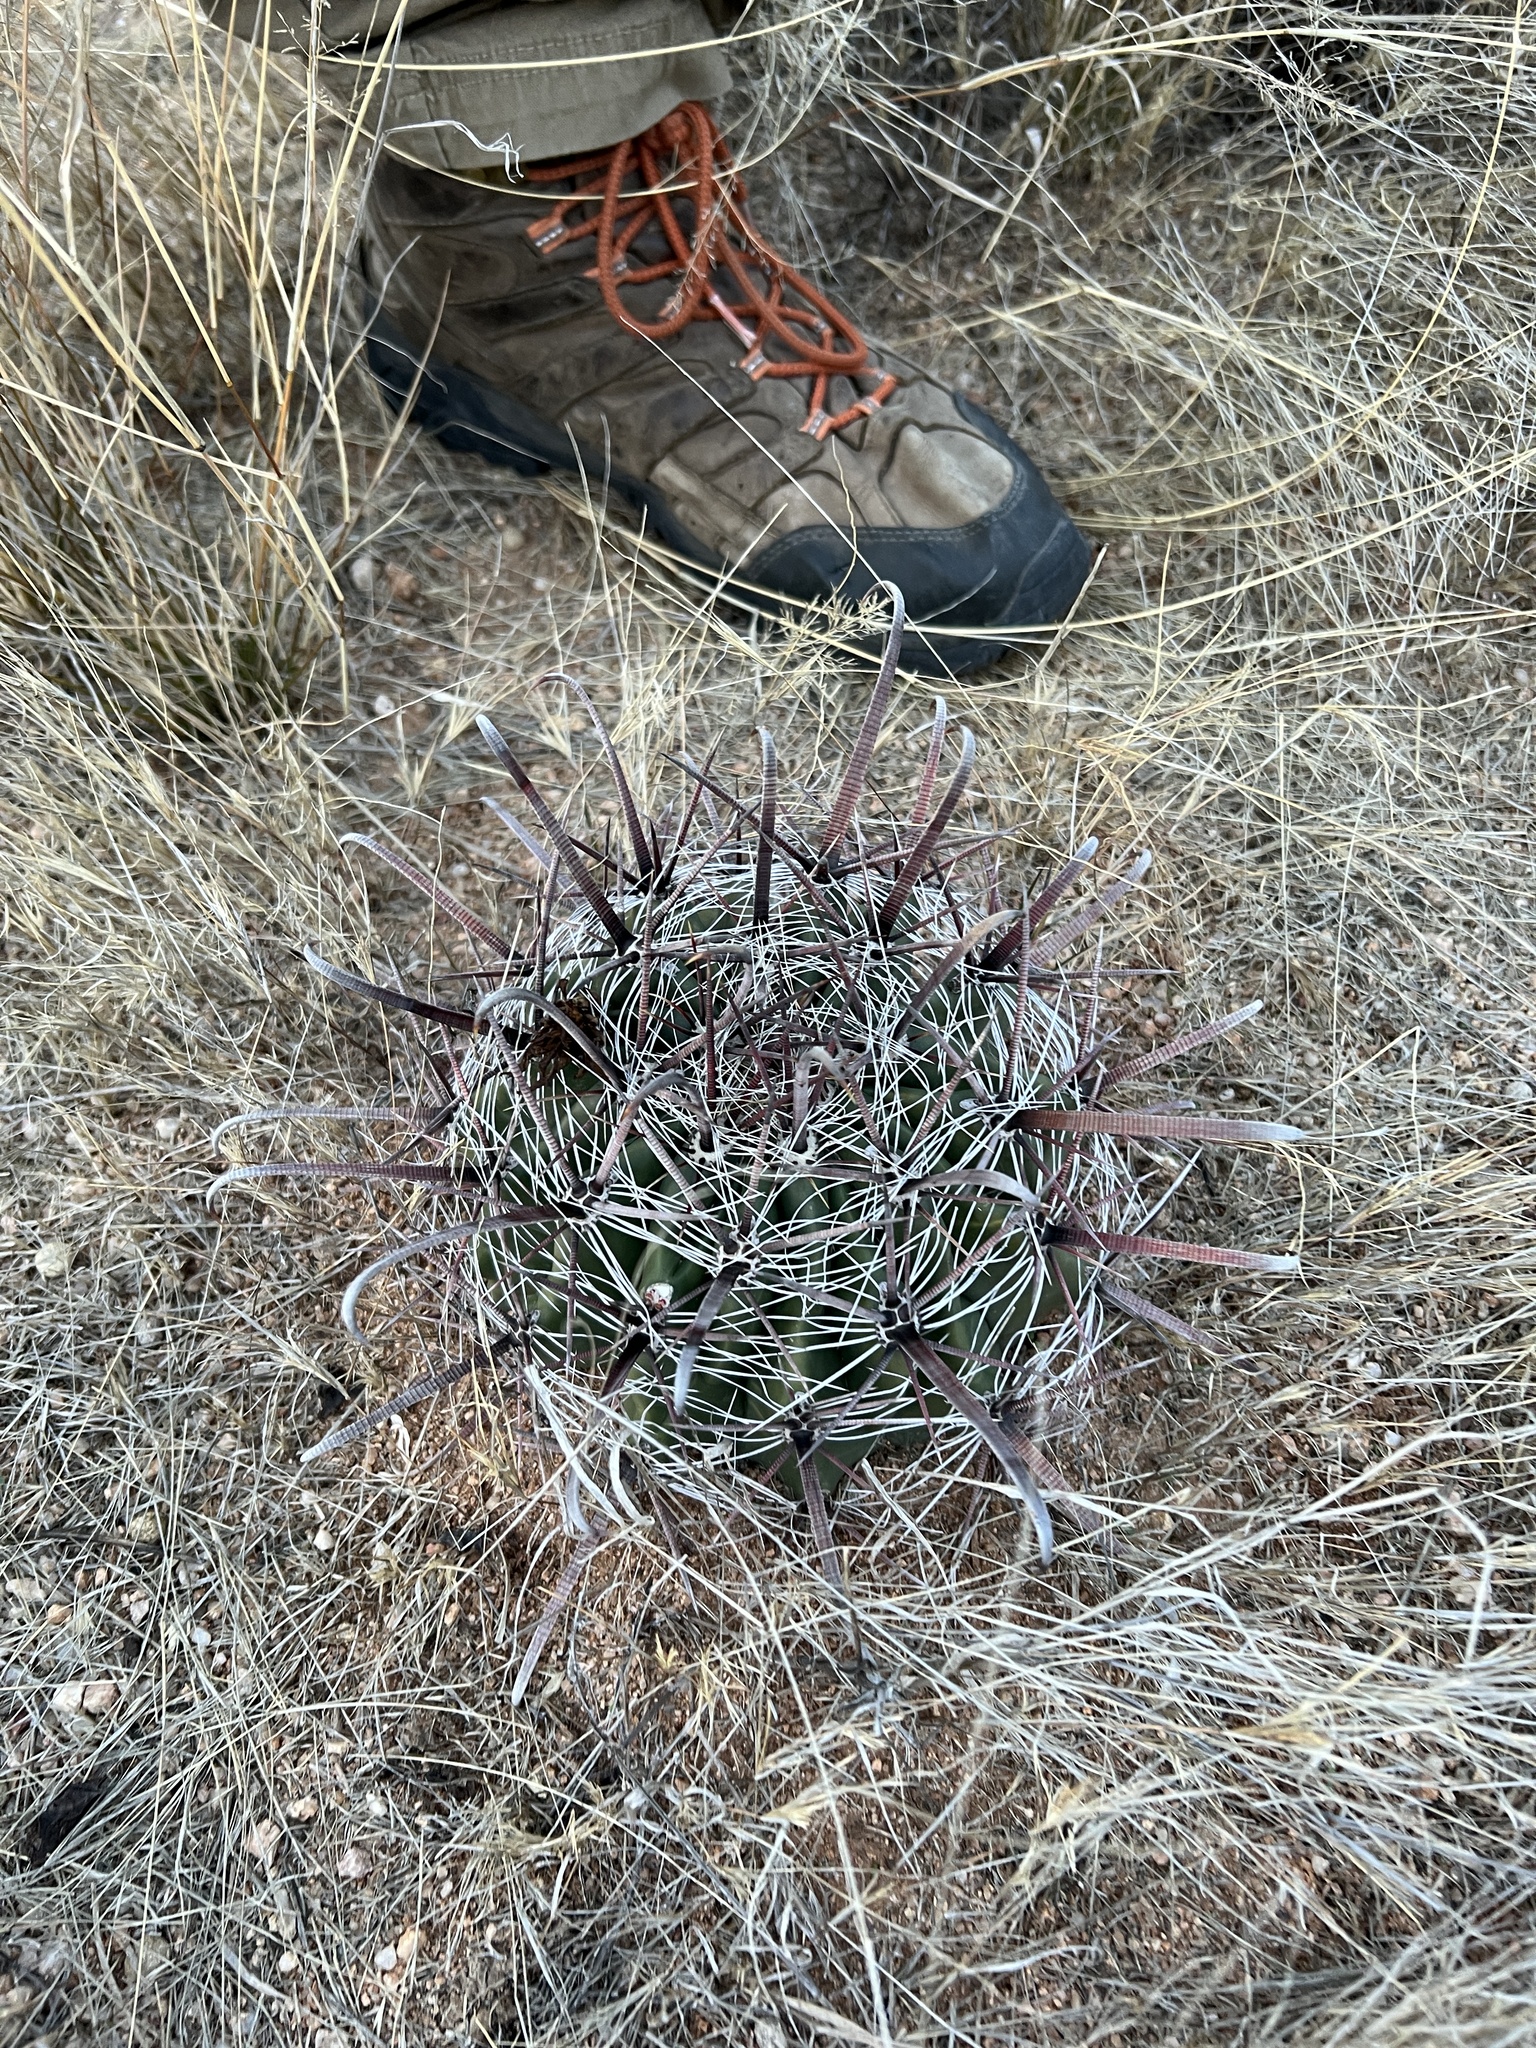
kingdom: Plantae
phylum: Tracheophyta
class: Magnoliopsida
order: Caryophyllales
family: Cactaceae
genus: Ferocactus
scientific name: Ferocactus wislizeni
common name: Candy barrel cactus
